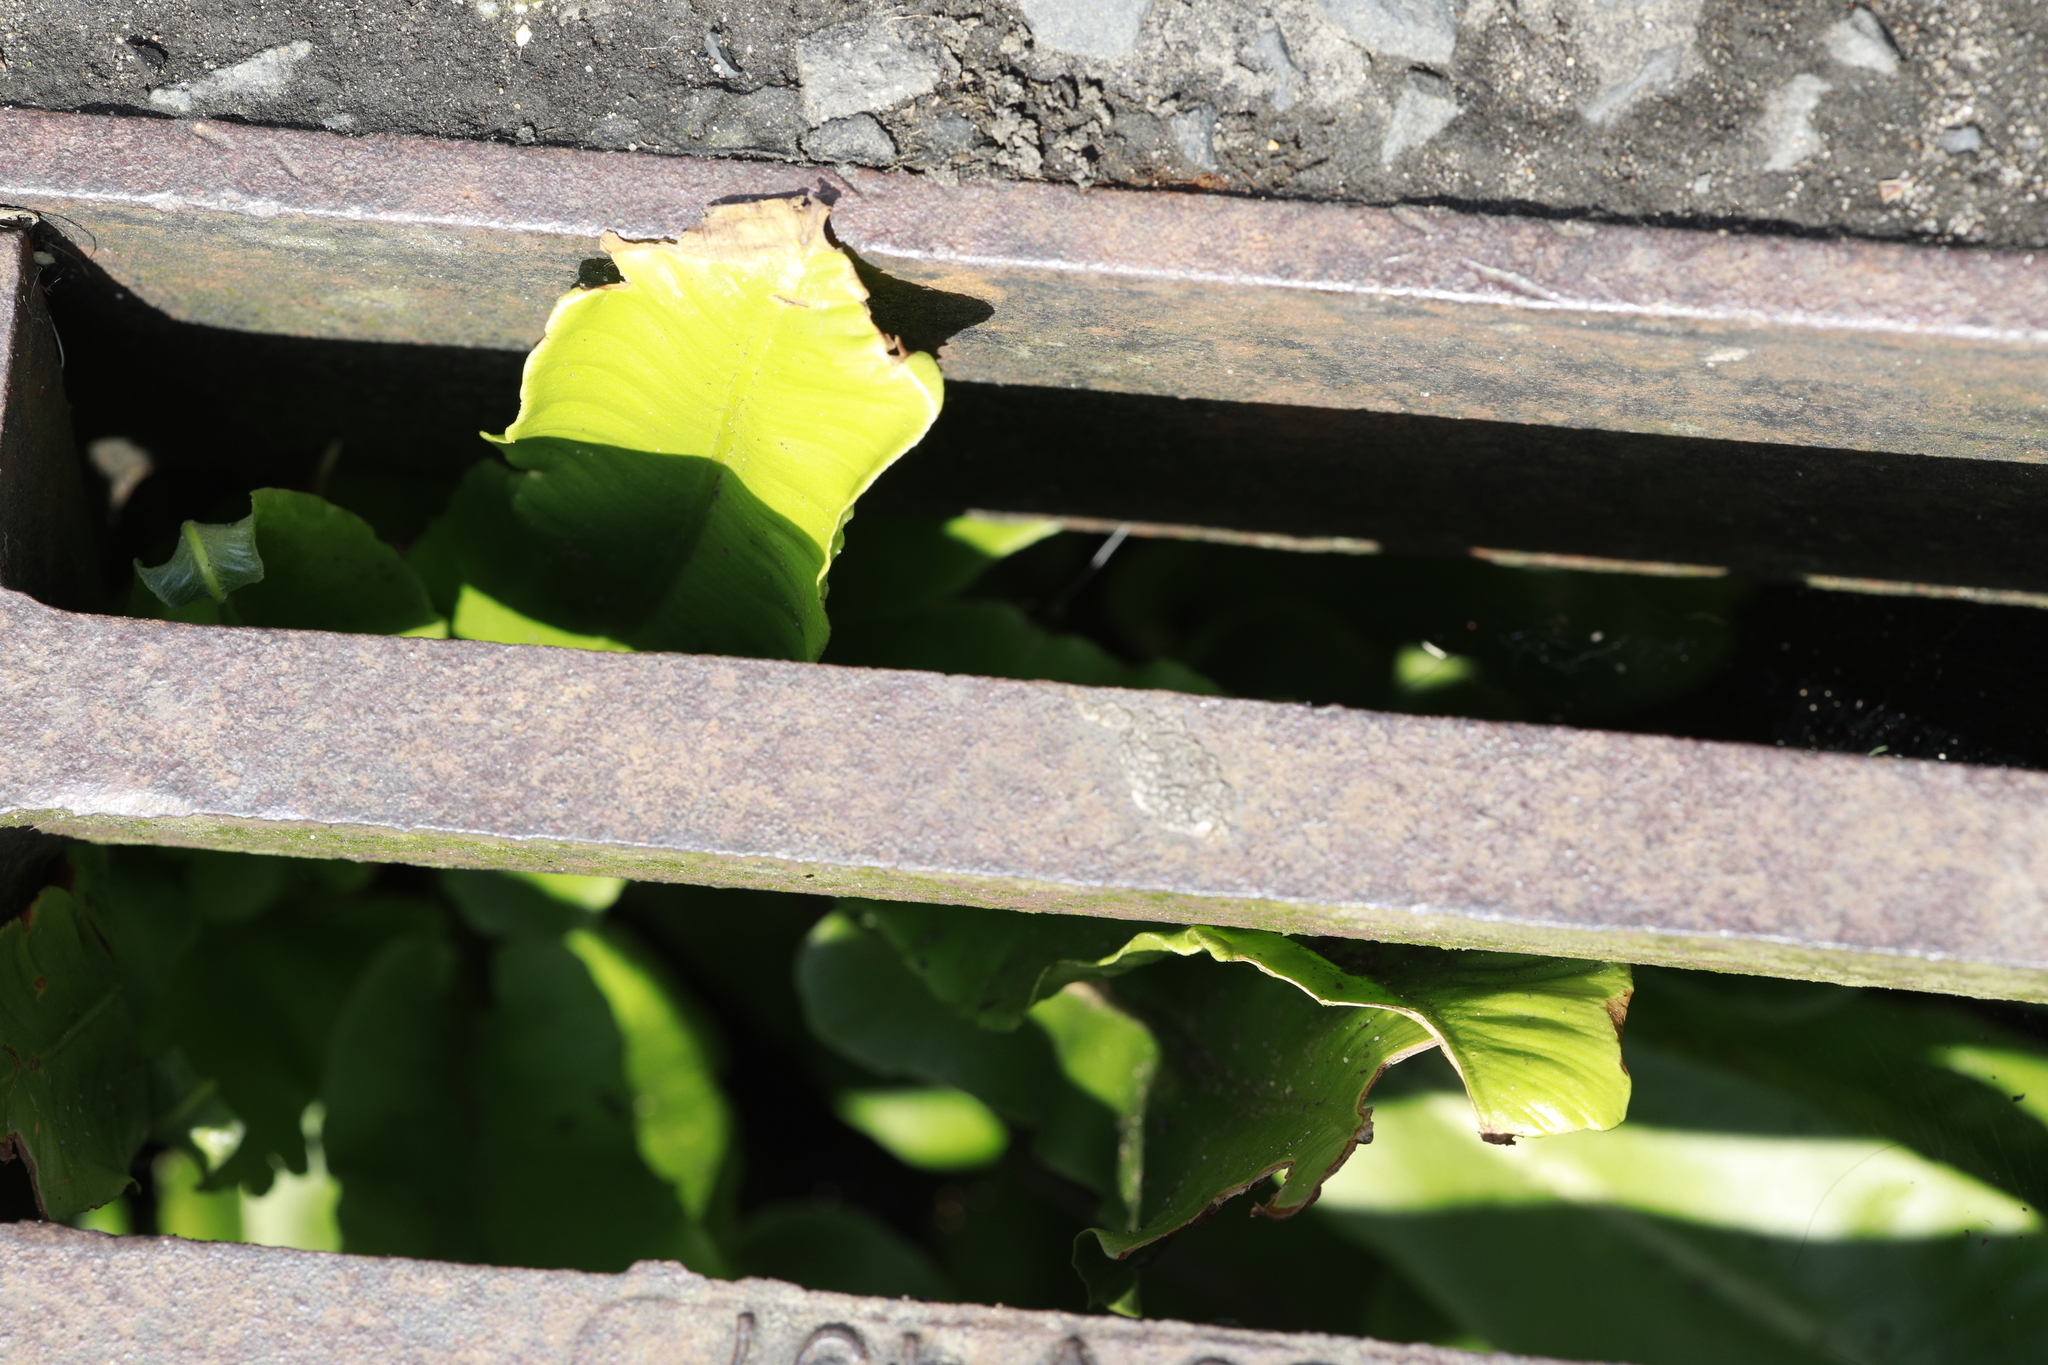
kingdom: Plantae
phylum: Tracheophyta
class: Polypodiopsida
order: Polypodiales
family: Aspleniaceae
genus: Asplenium
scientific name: Asplenium scolopendrium
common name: Hart's-tongue fern
